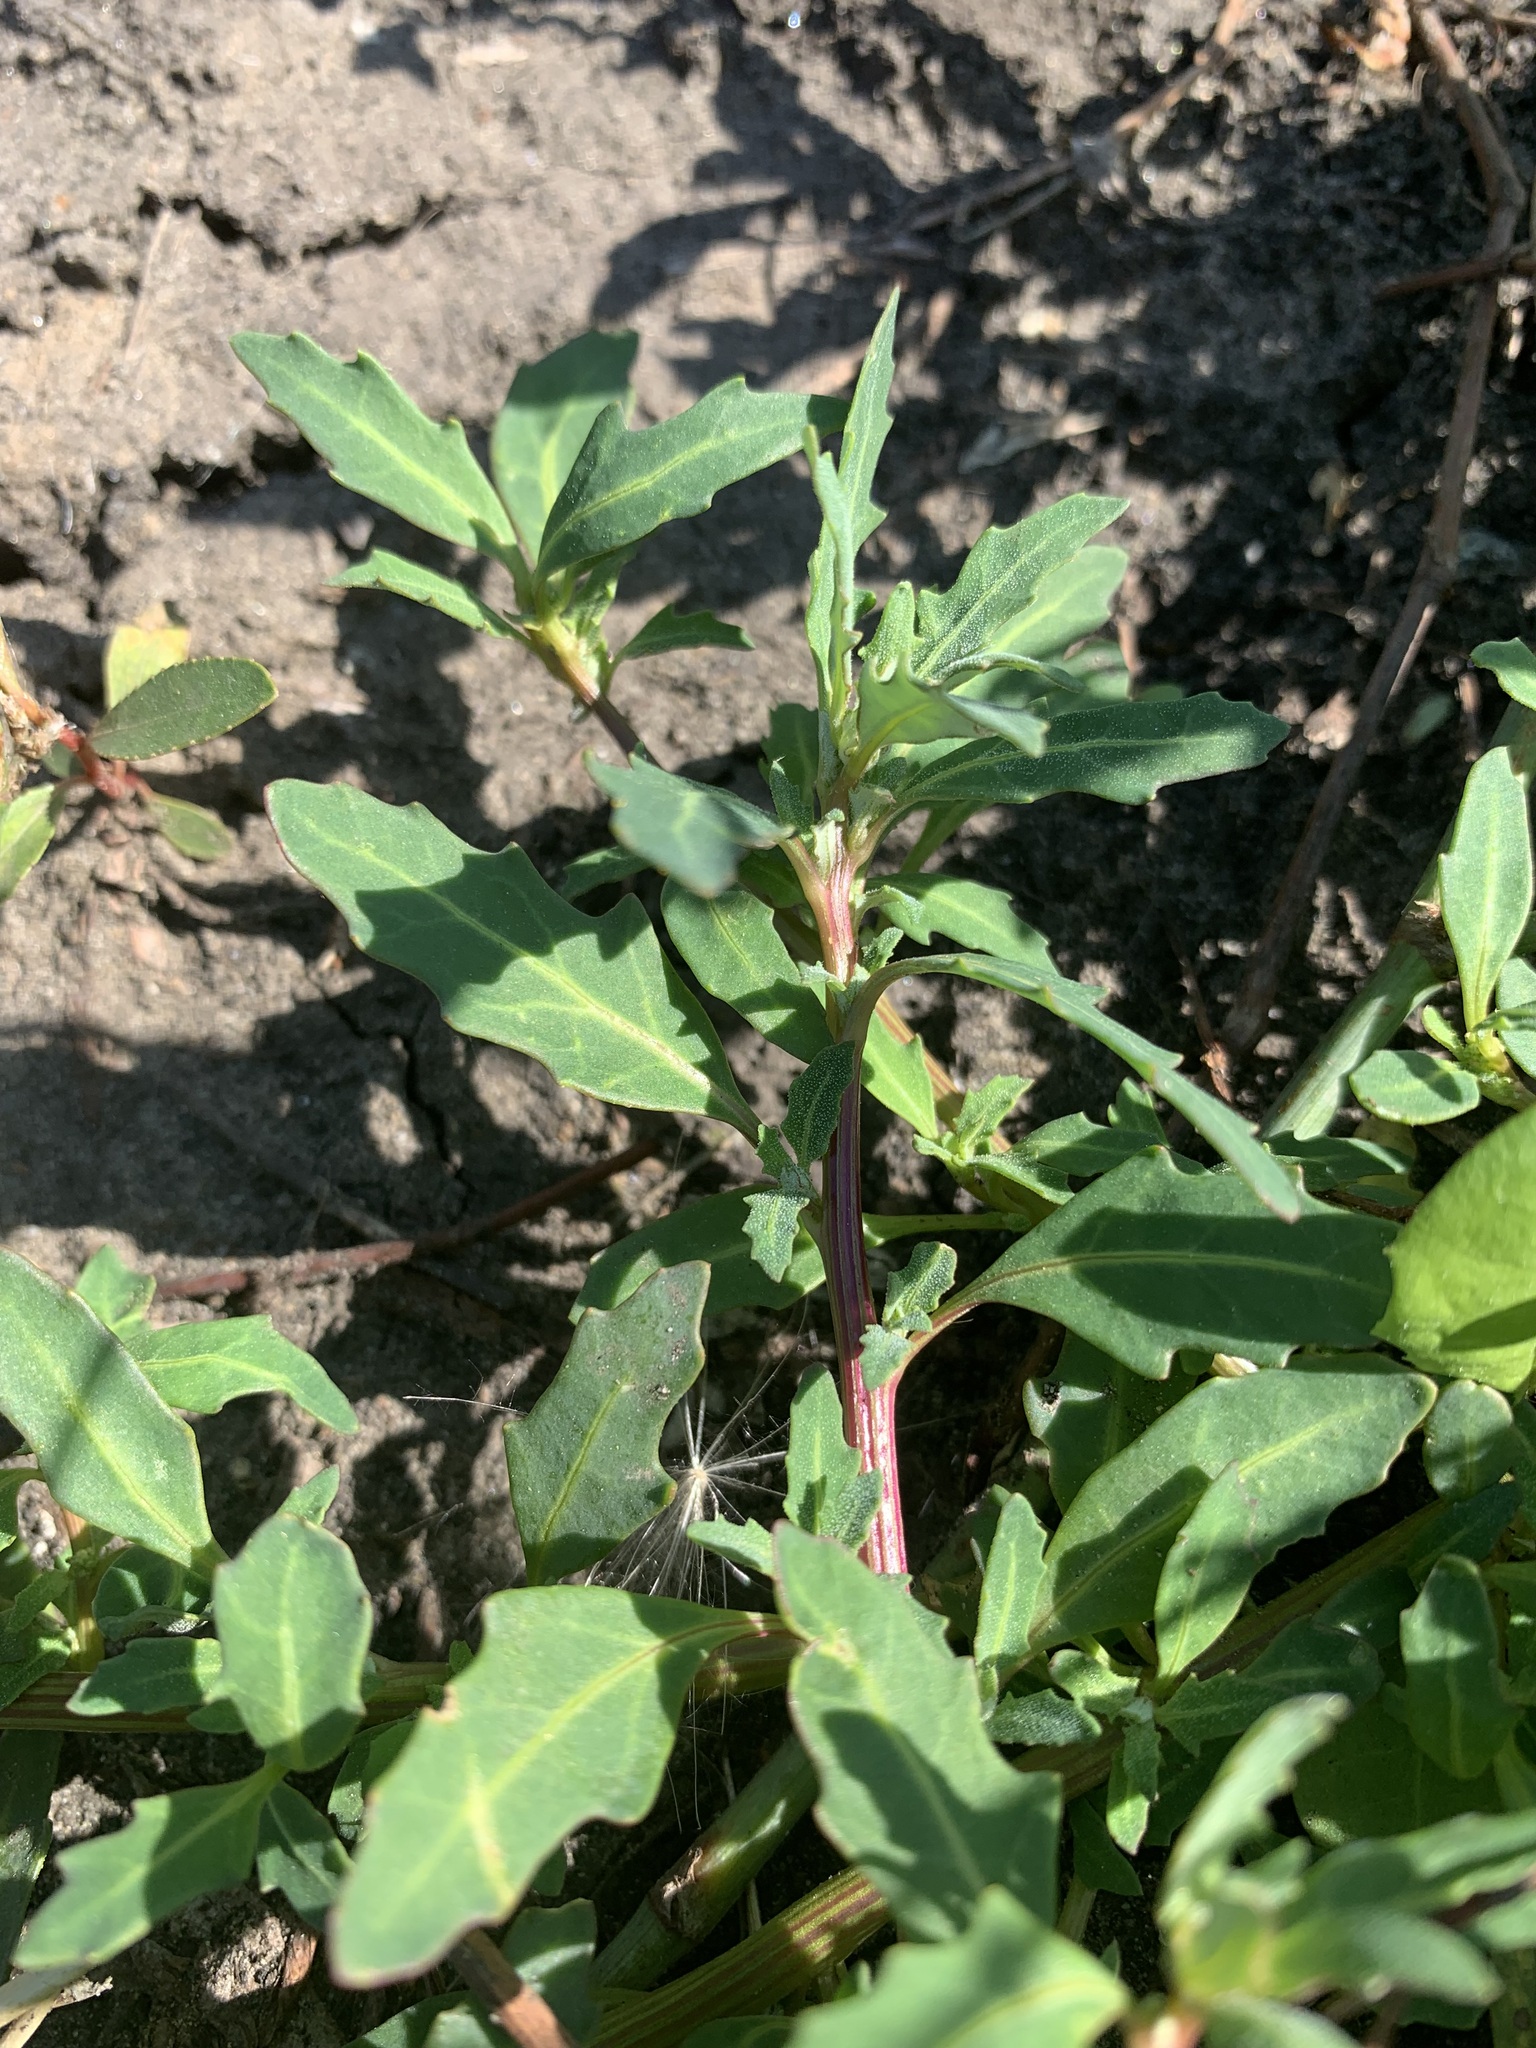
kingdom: Plantae
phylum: Tracheophyta
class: Magnoliopsida
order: Caryophyllales
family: Amaranthaceae
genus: Oxybasis
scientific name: Oxybasis glauca
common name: Glaucous goosefoot
